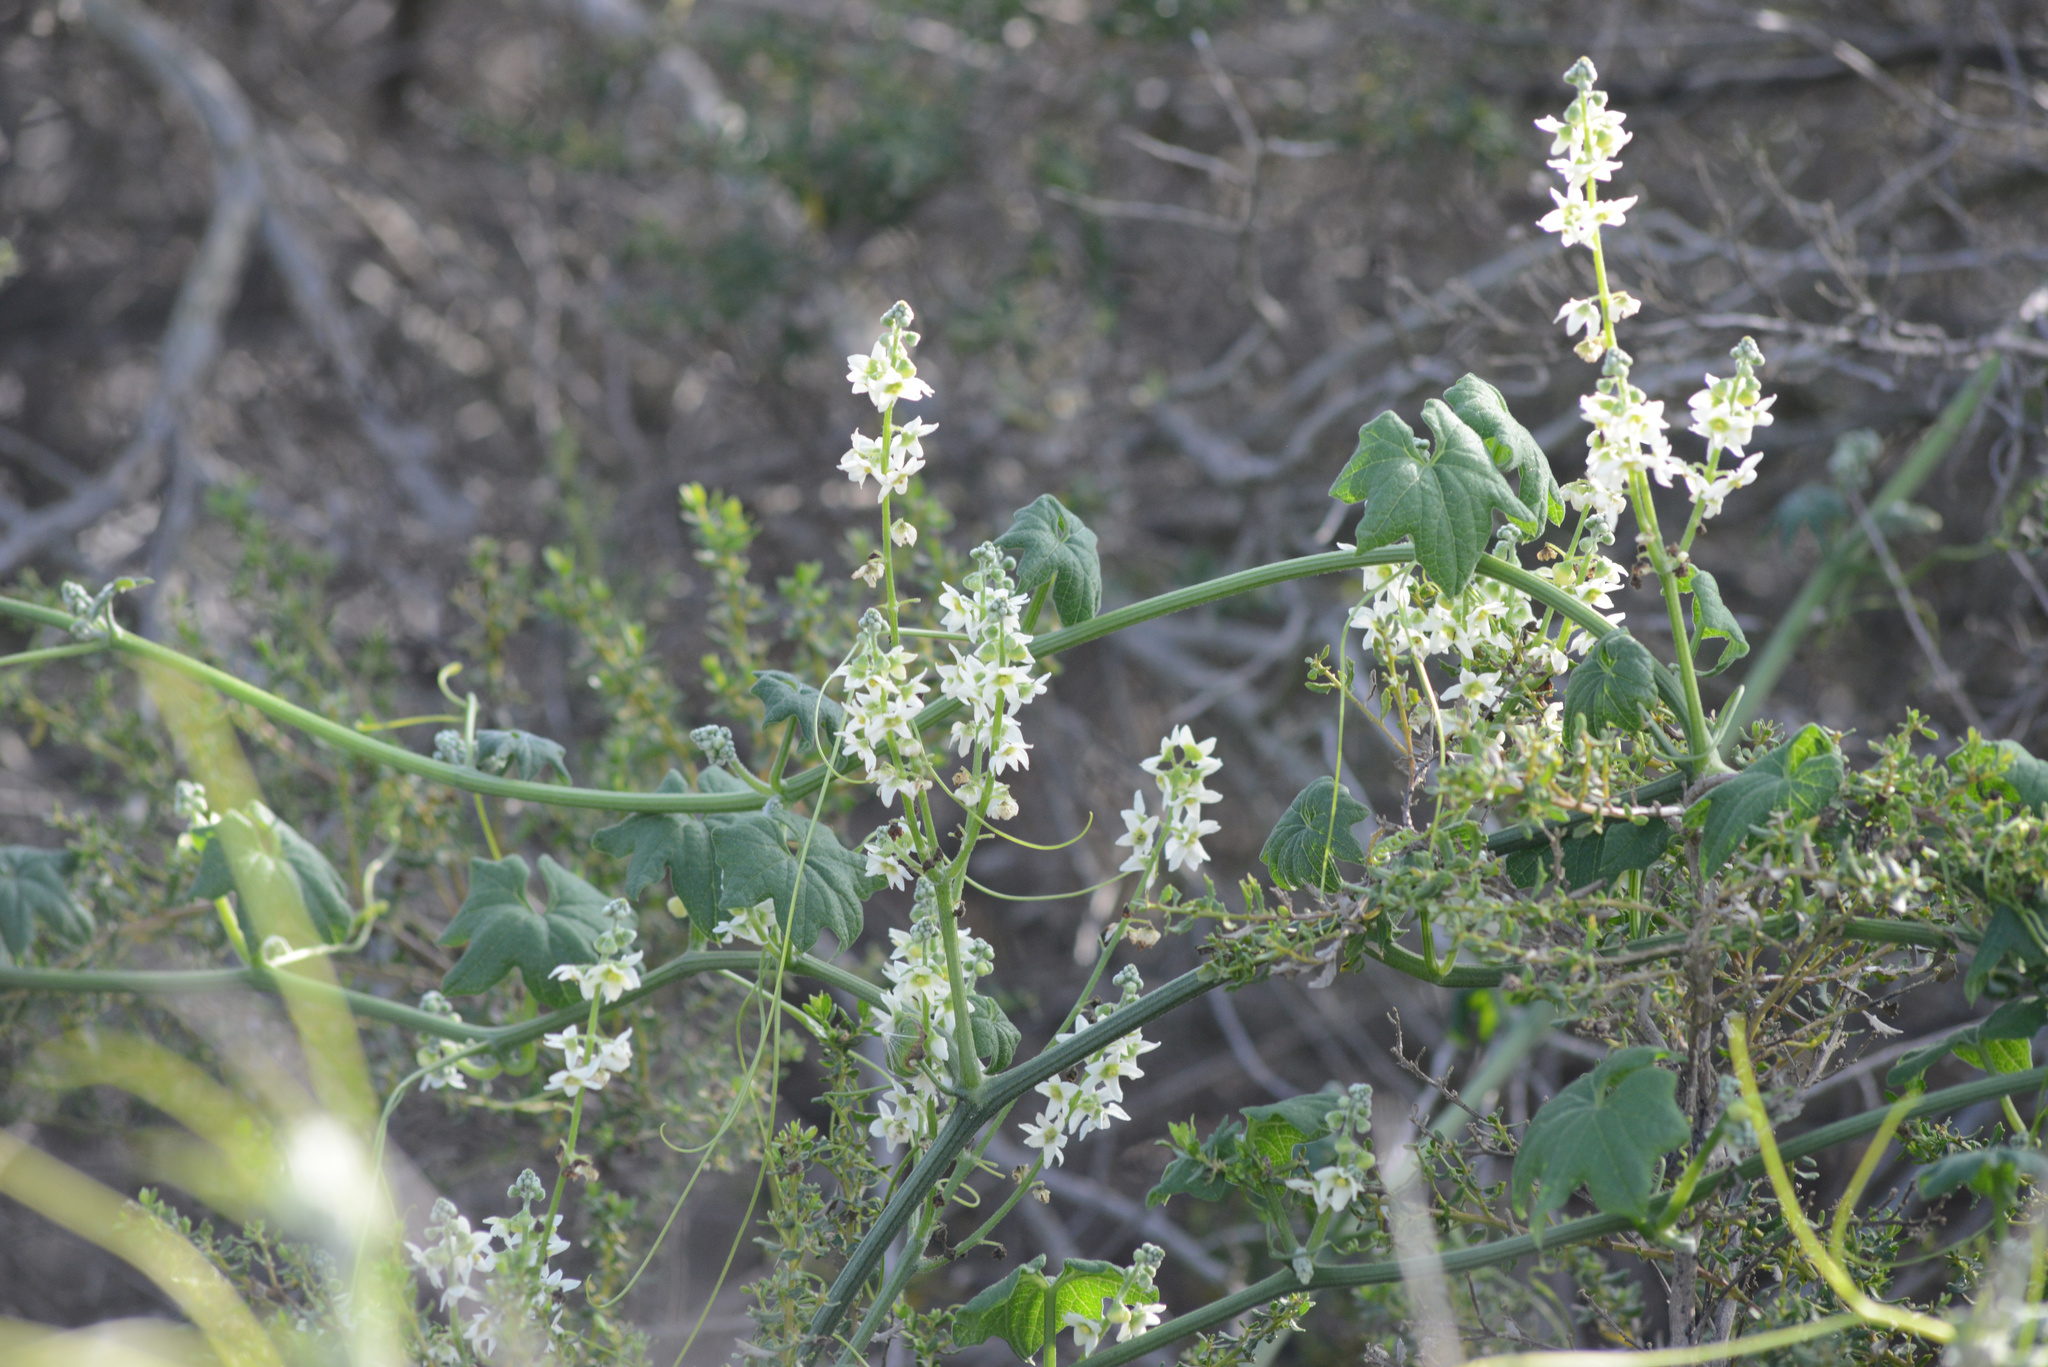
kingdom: Plantae
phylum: Tracheophyta
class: Magnoliopsida
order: Cucurbitales
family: Cucurbitaceae
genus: Marah
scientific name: Marah macrocarpa
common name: Cucamonga manroot
